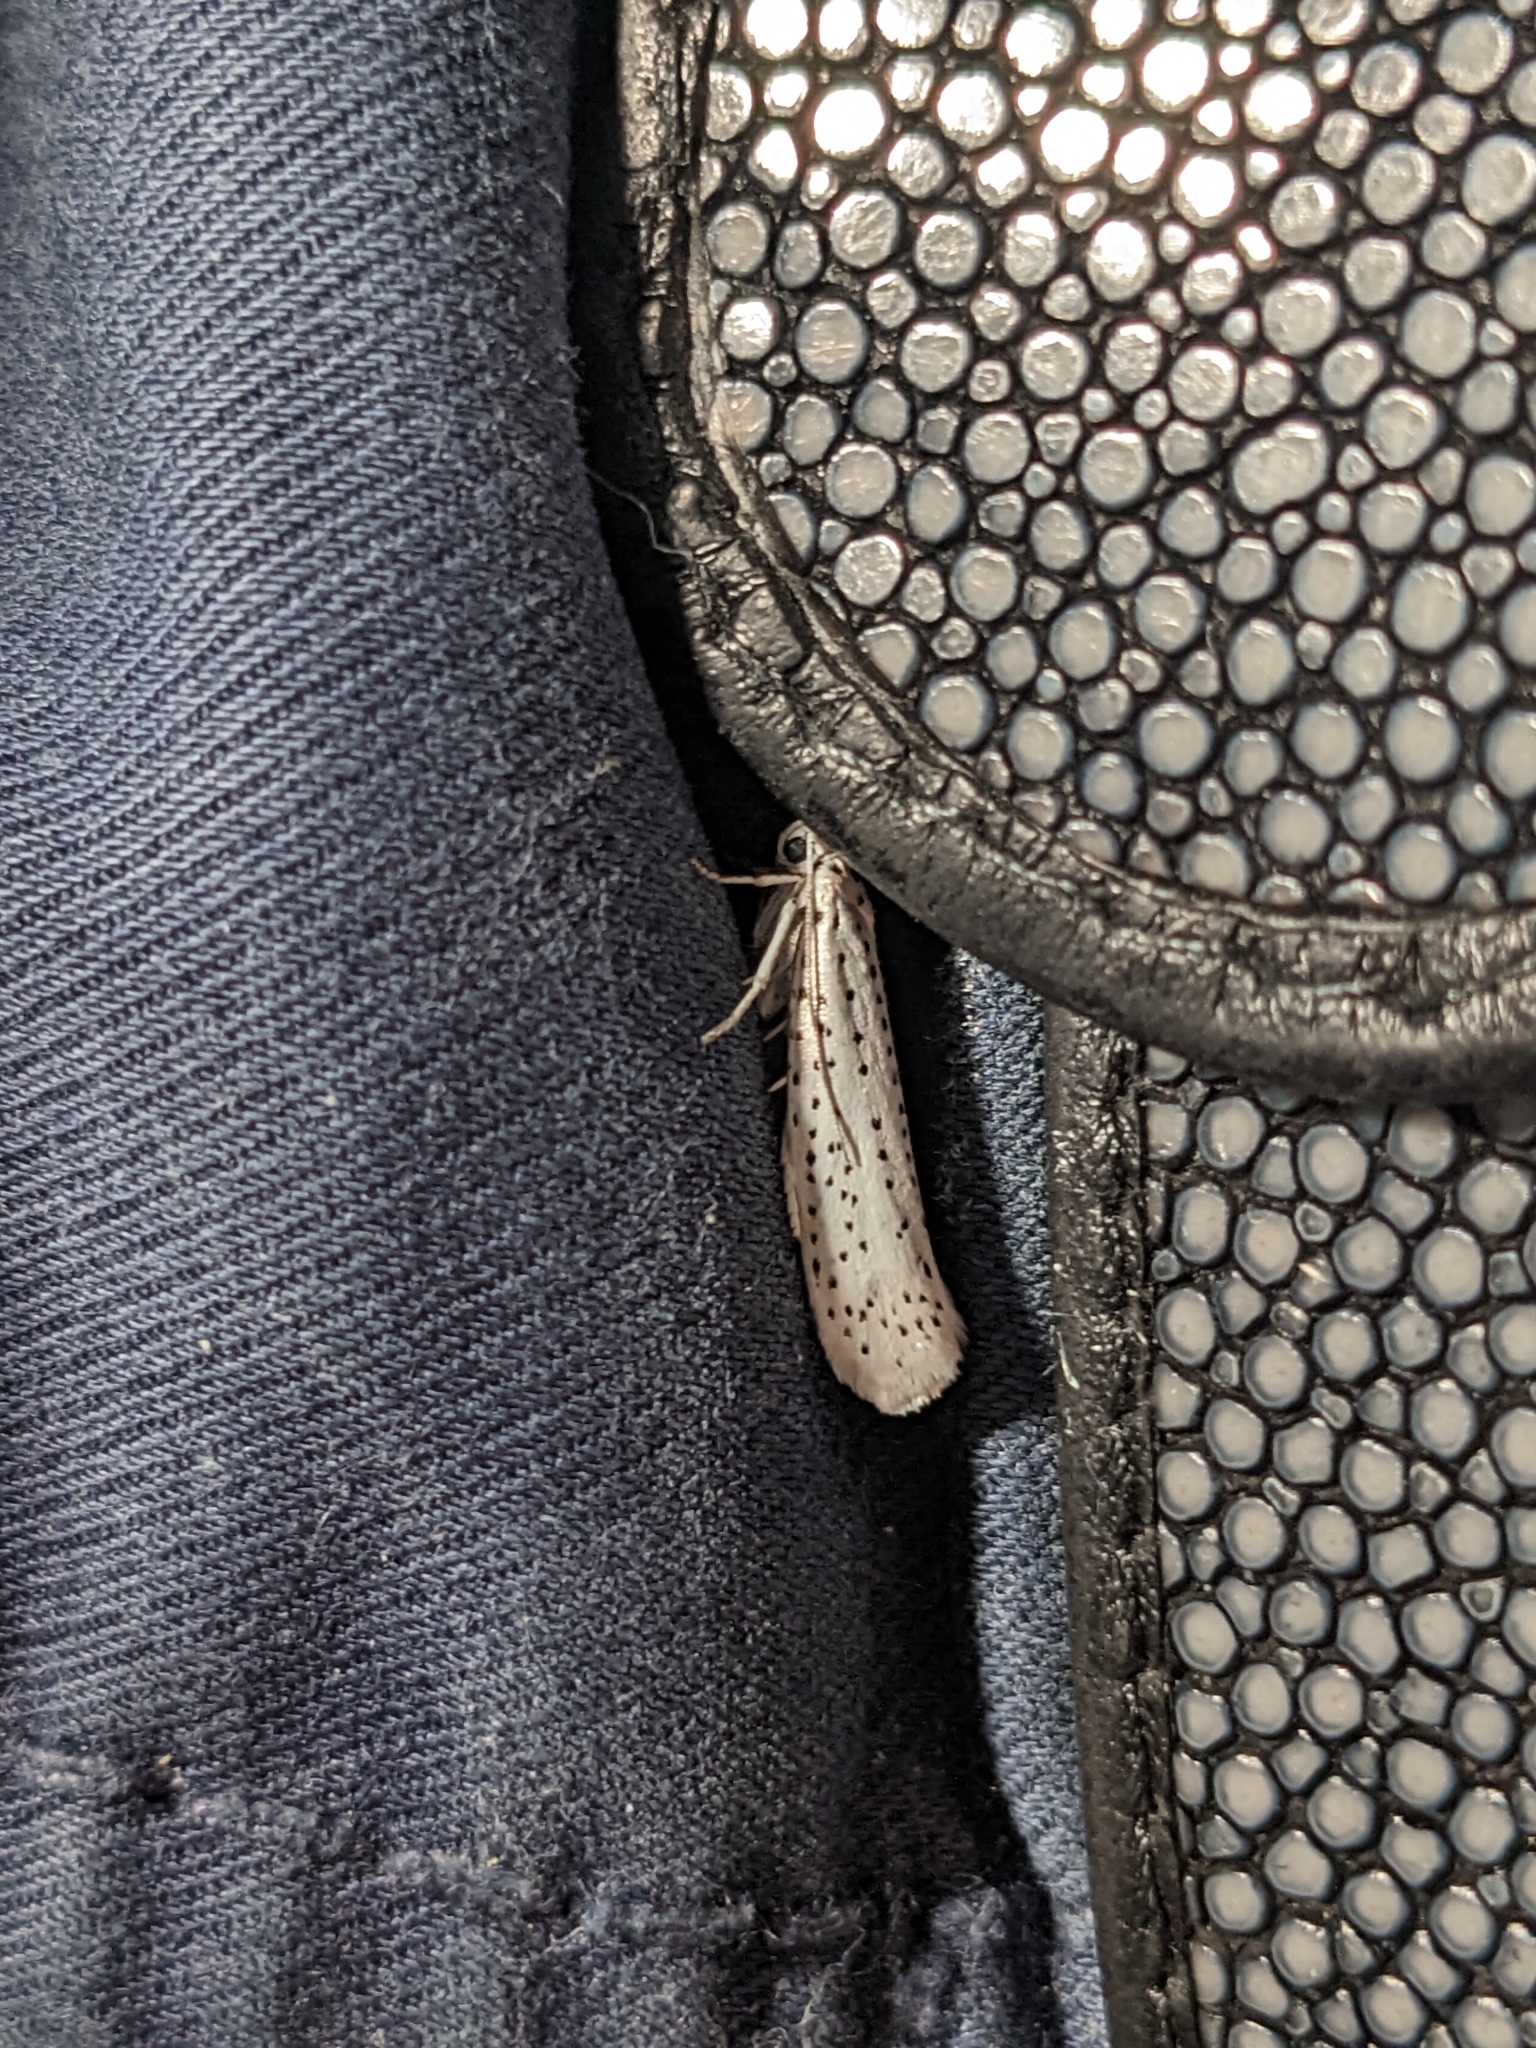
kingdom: Animalia
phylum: Arthropoda
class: Insecta
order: Lepidoptera
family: Yponomeutidae
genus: Yponomeuta
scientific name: Yponomeuta evonymella
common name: Bird-cherry ermine
